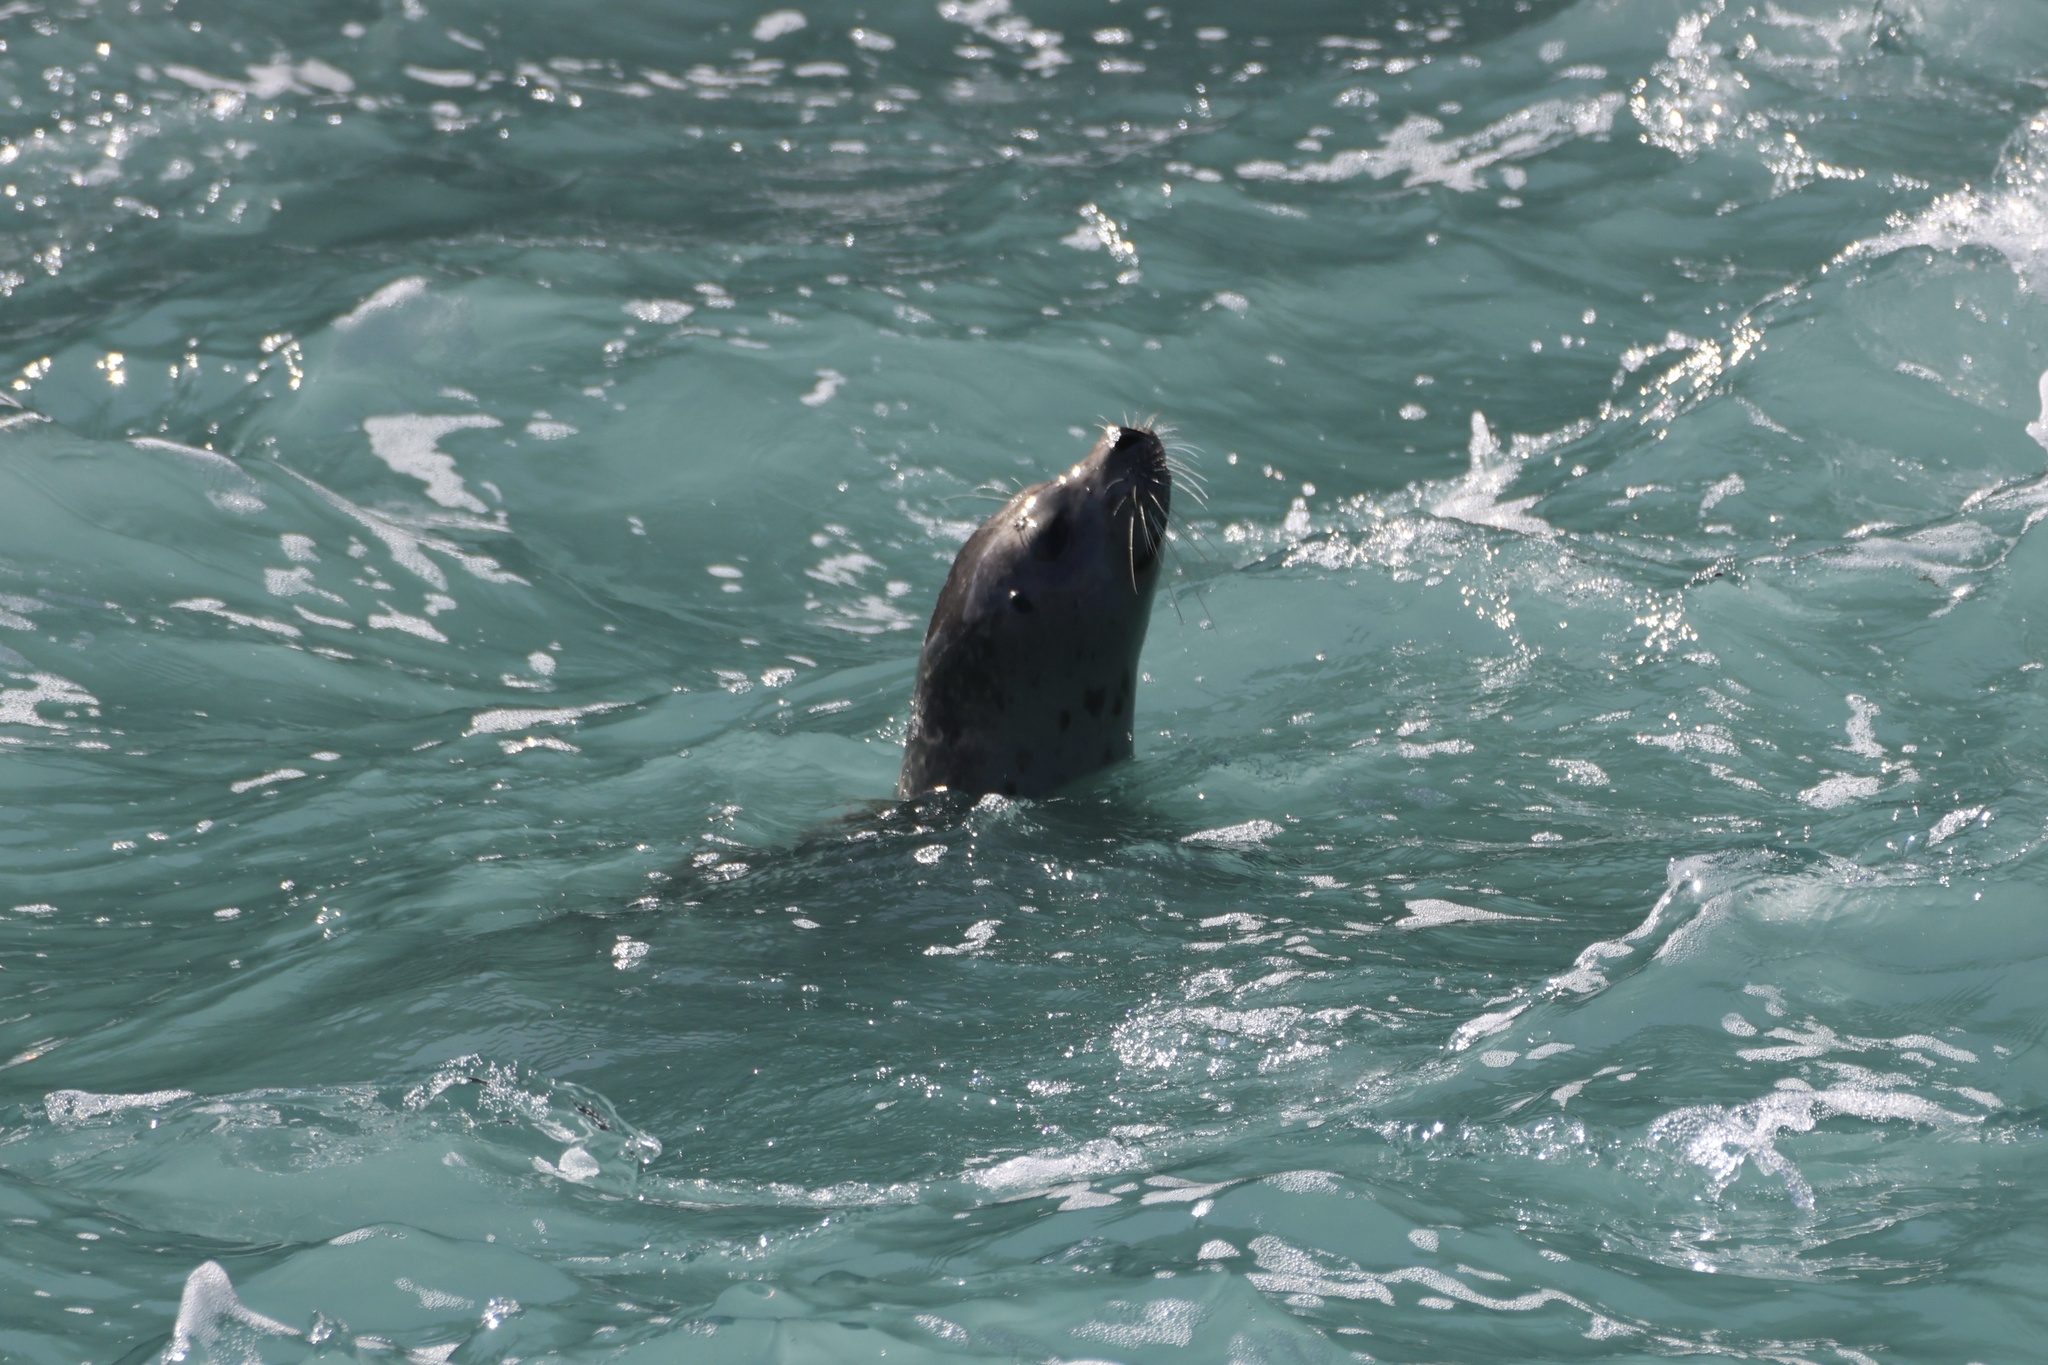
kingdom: Animalia
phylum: Chordata
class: Mammalia
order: Carnivora
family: Phocidae
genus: Phoca
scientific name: Phoca vitulina
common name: Harbor seal
